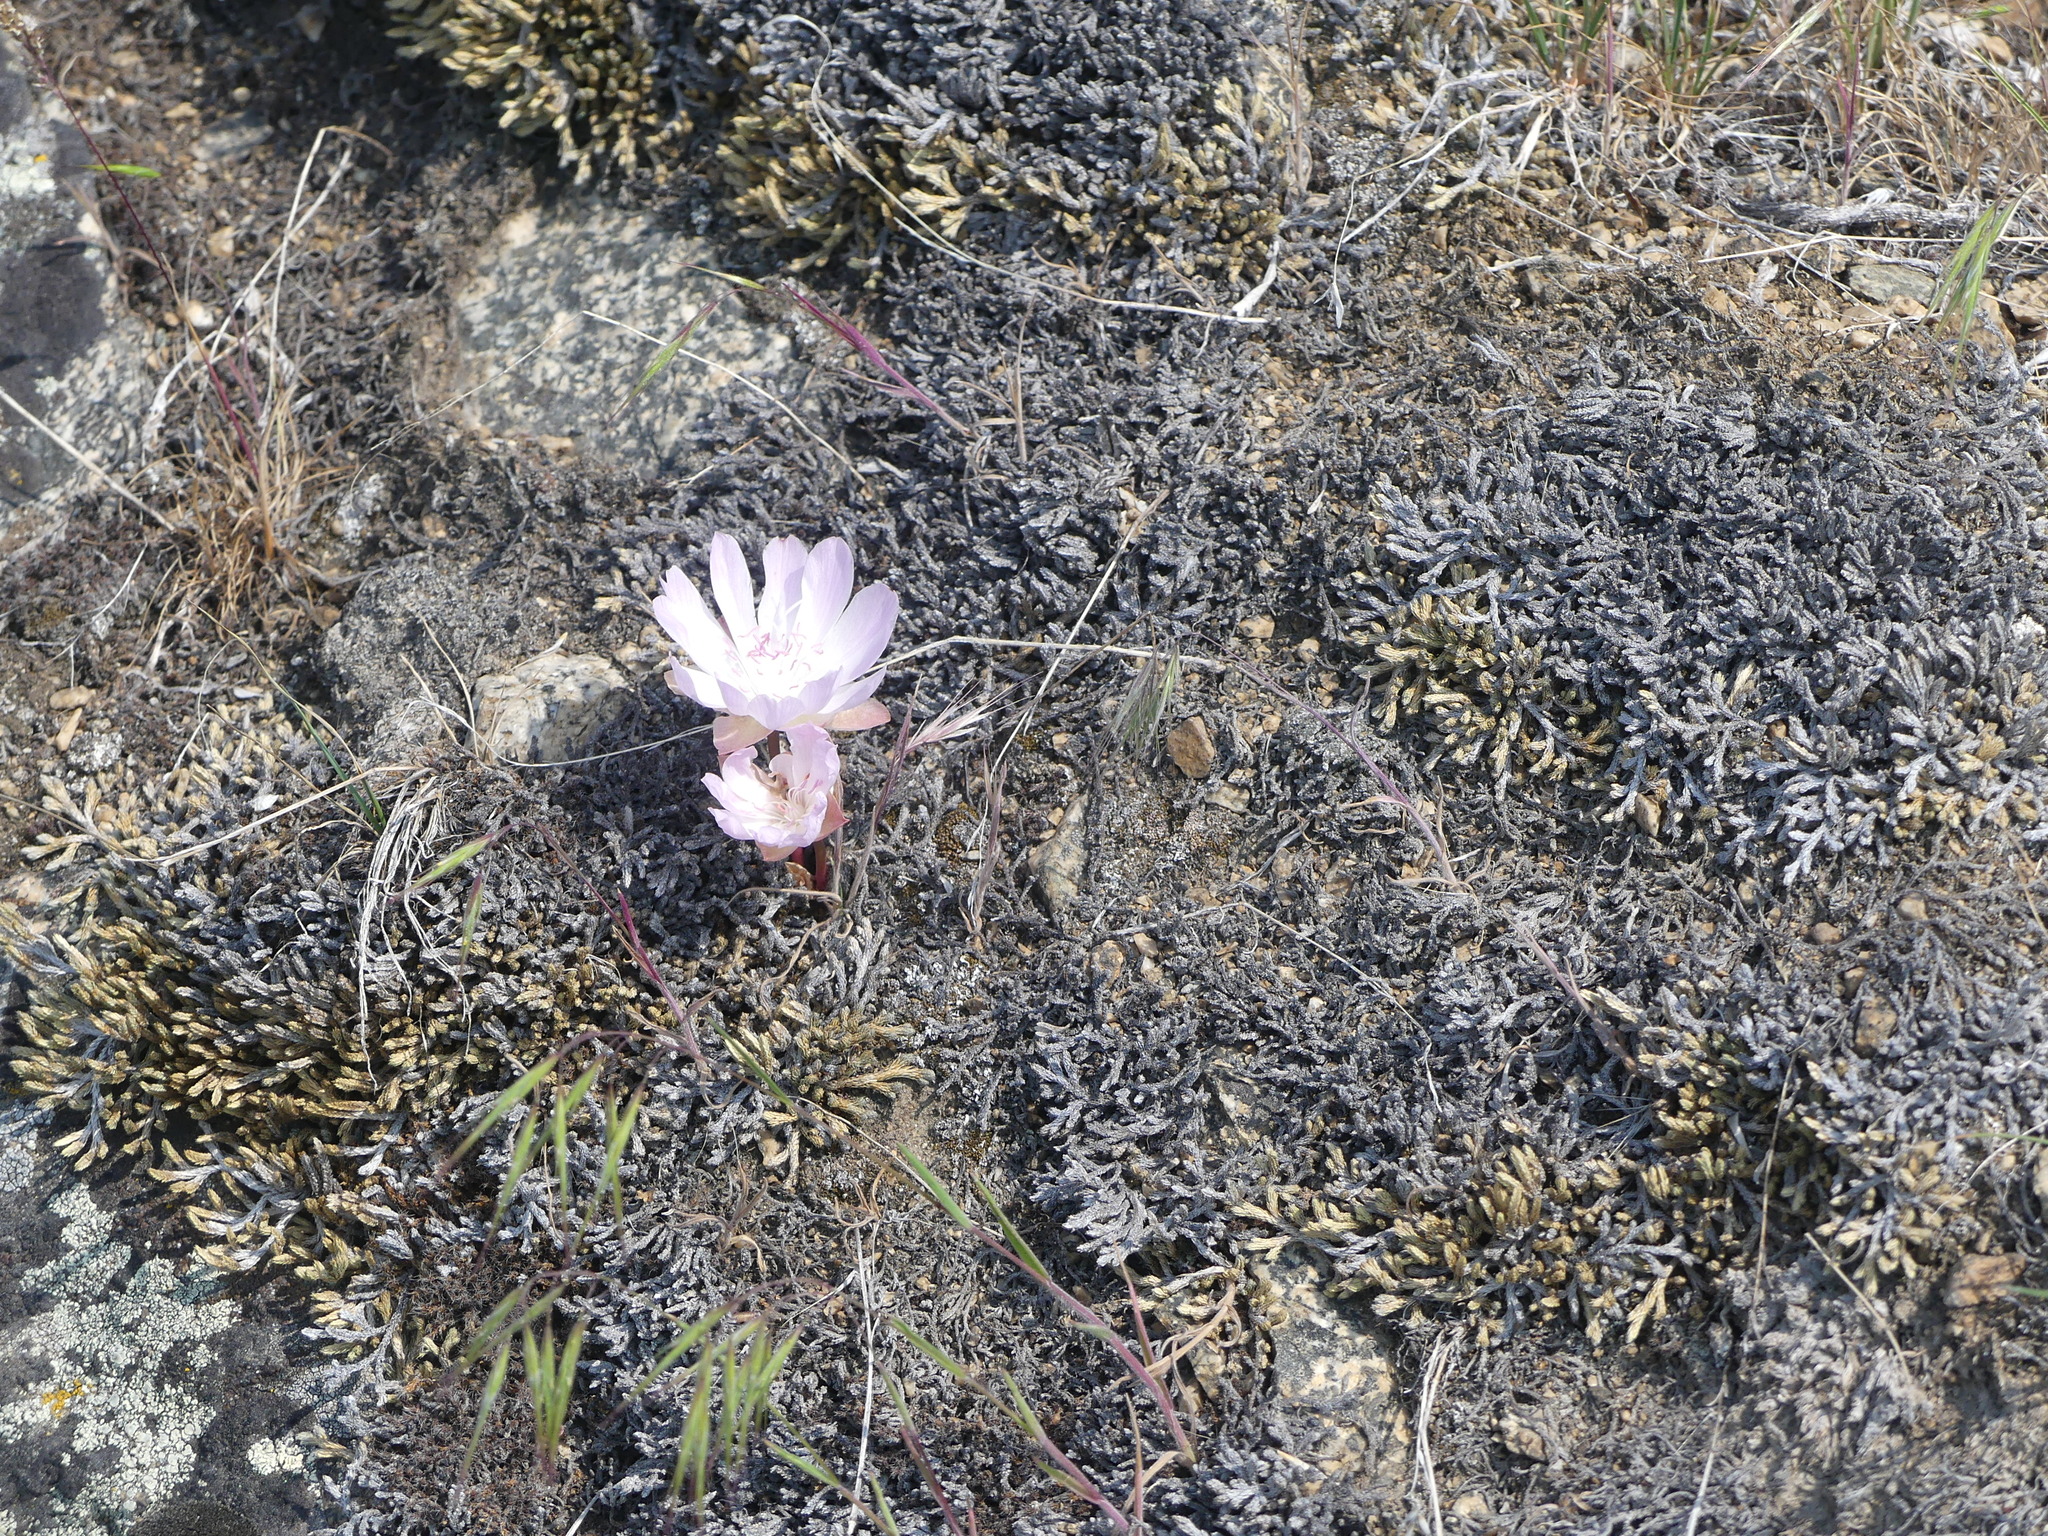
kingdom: Plantae
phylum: Tracheophyta
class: Magnoliopsida
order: Caryophyllales
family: Montiaceae
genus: Lewisia
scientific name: Lewisia rediviva
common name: Bitter-root
